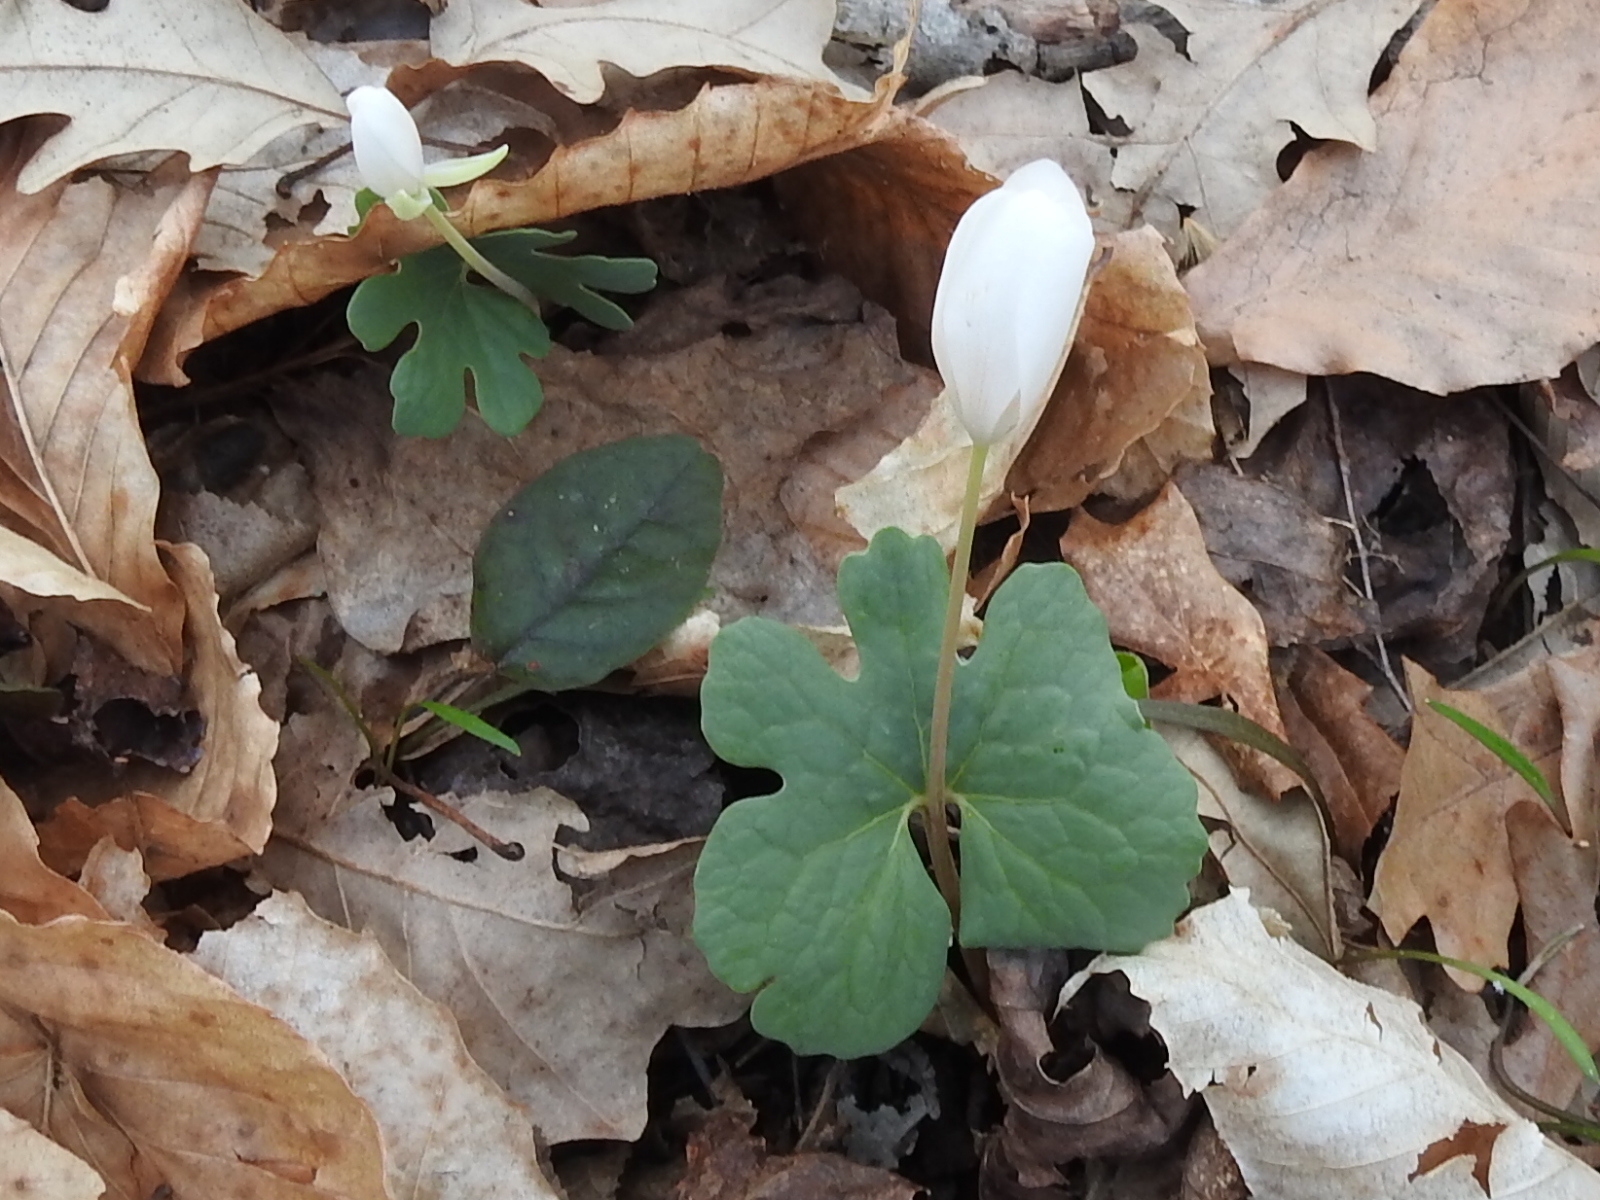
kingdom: Plantae
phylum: Tracheophyta
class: Magnoliopsida
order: Ranunculales
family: Papaveraceae
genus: Sanguinaria
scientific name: Sanguinaria canadensis
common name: Bloodroot
